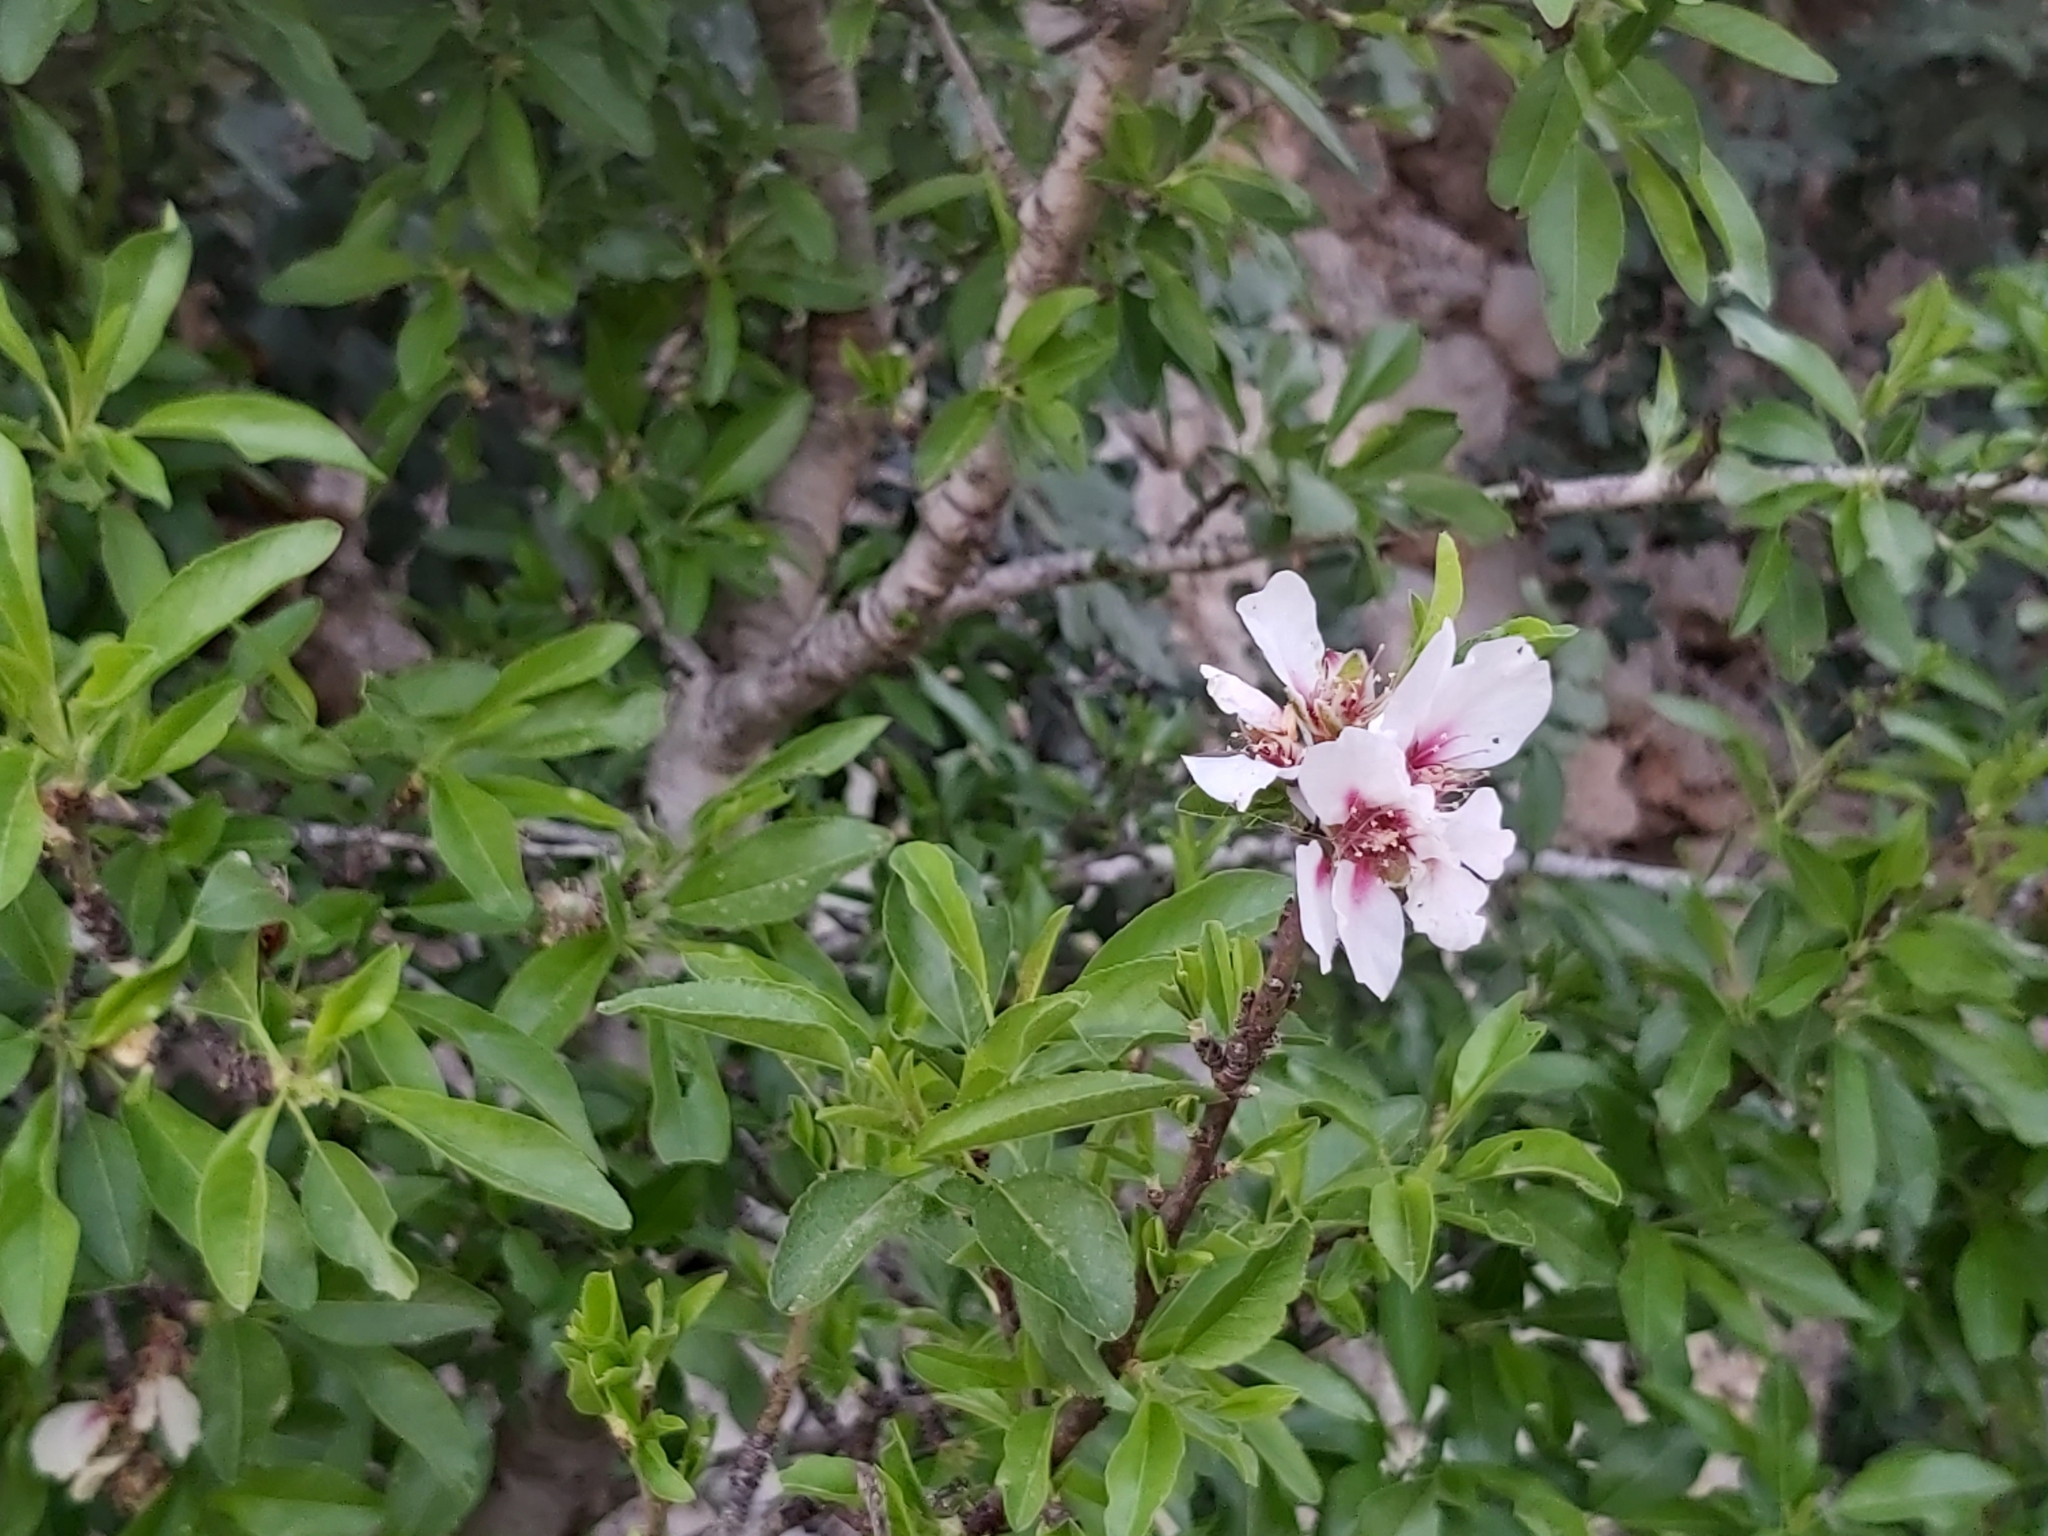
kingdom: Plantae
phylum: Tracheophyta
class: Magnoliopsida
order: Rosales
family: Rosaceae
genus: Prunus
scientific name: Prunus amygdalus
